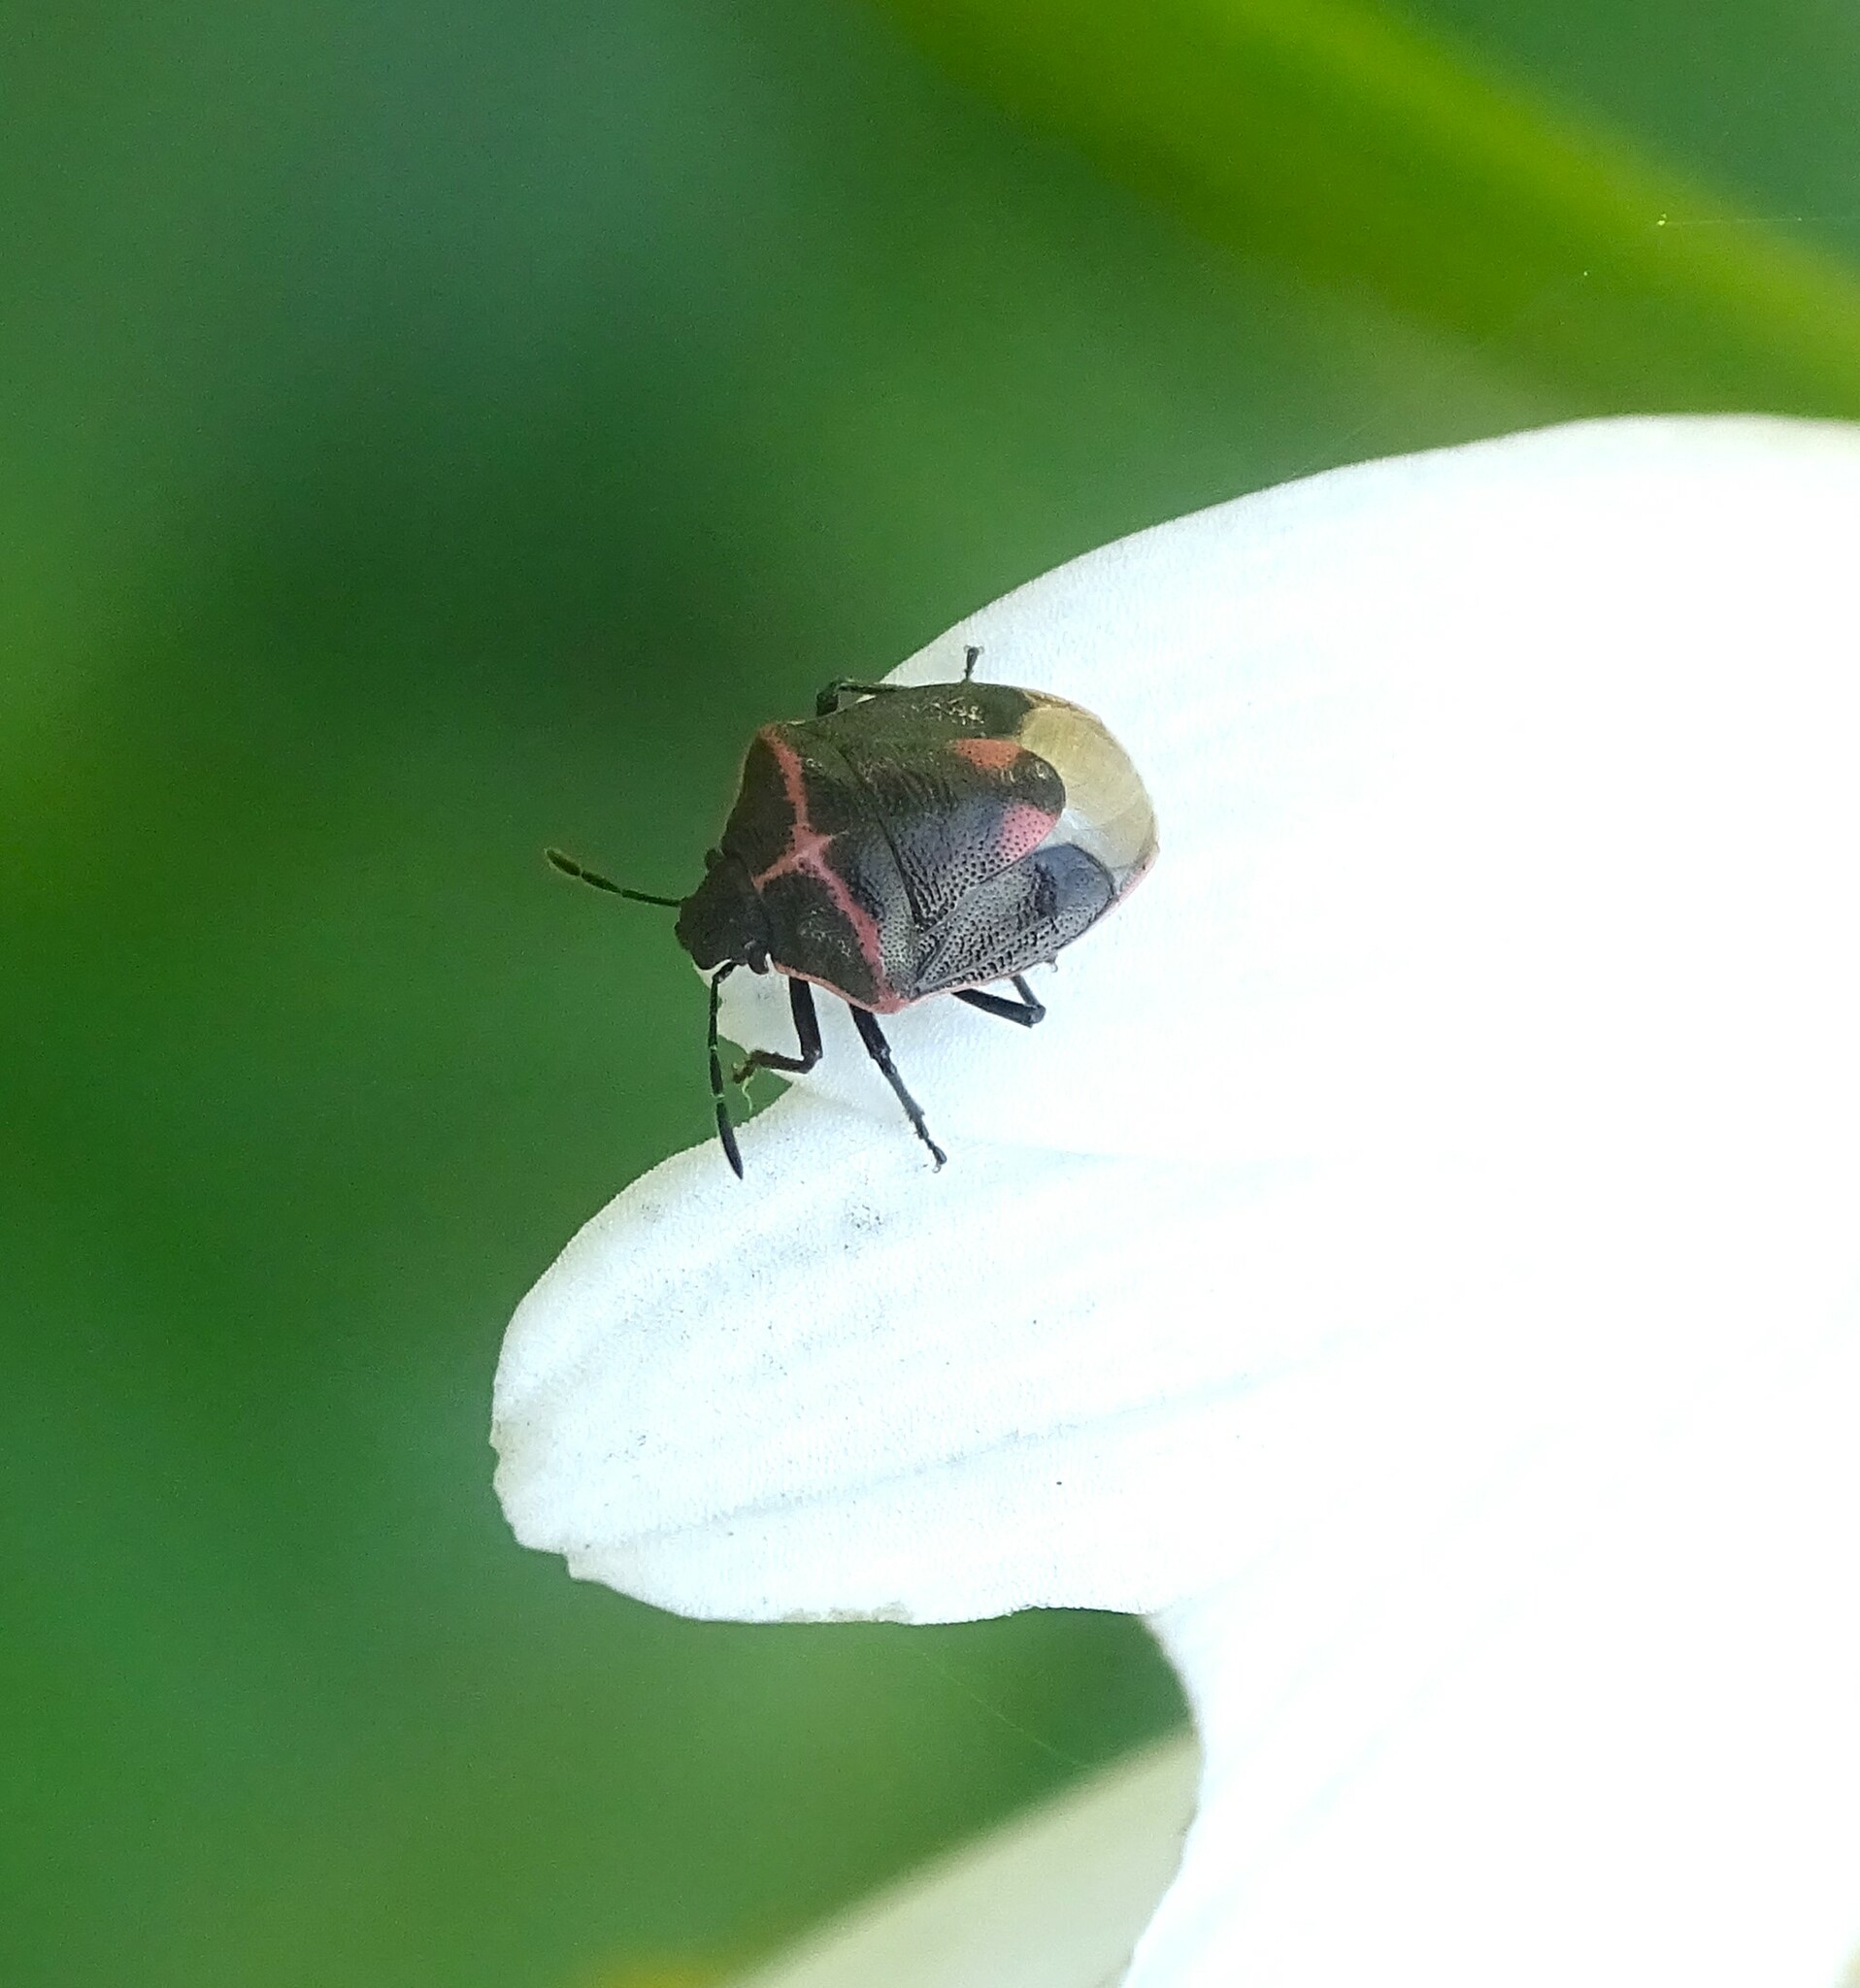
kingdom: Animalia
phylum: Arthropoda
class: Insecta
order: Hemiptera
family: Pentatomidae
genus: Cosmopepla
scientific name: Cosmopepla lintneriana
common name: Twice-stabbed stink bug
